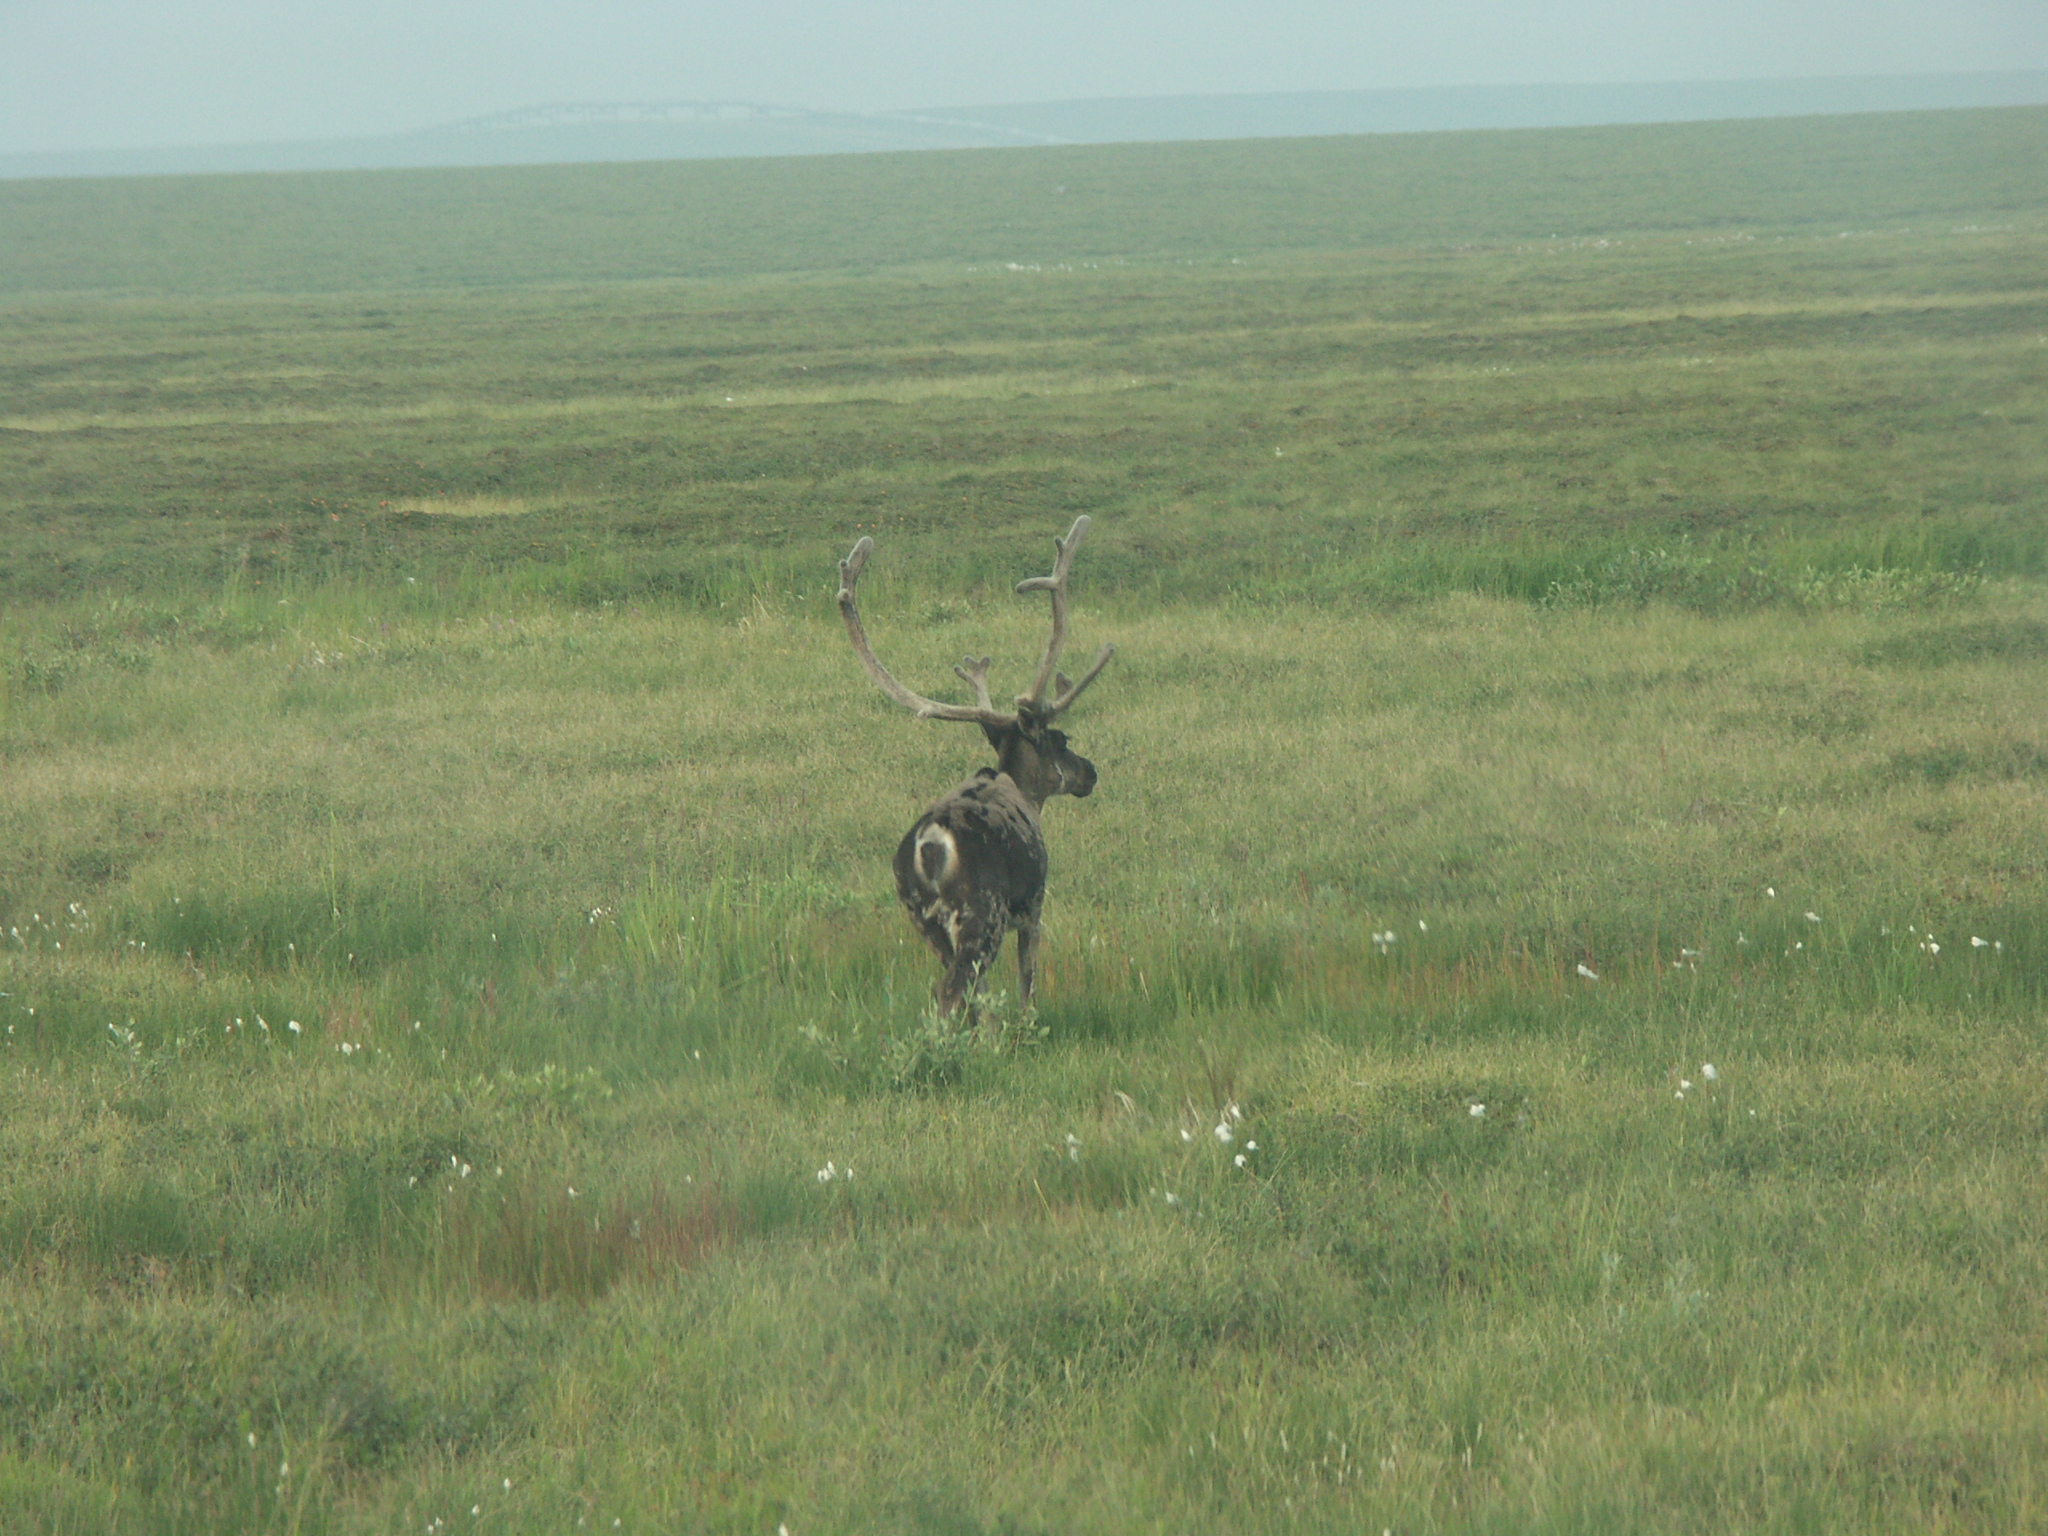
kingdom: Animalia
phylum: Chordata
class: Mammalia
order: Artiodactyla
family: Cervidae
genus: Rangifer
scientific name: Rangifer tarandus
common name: Reindeer
